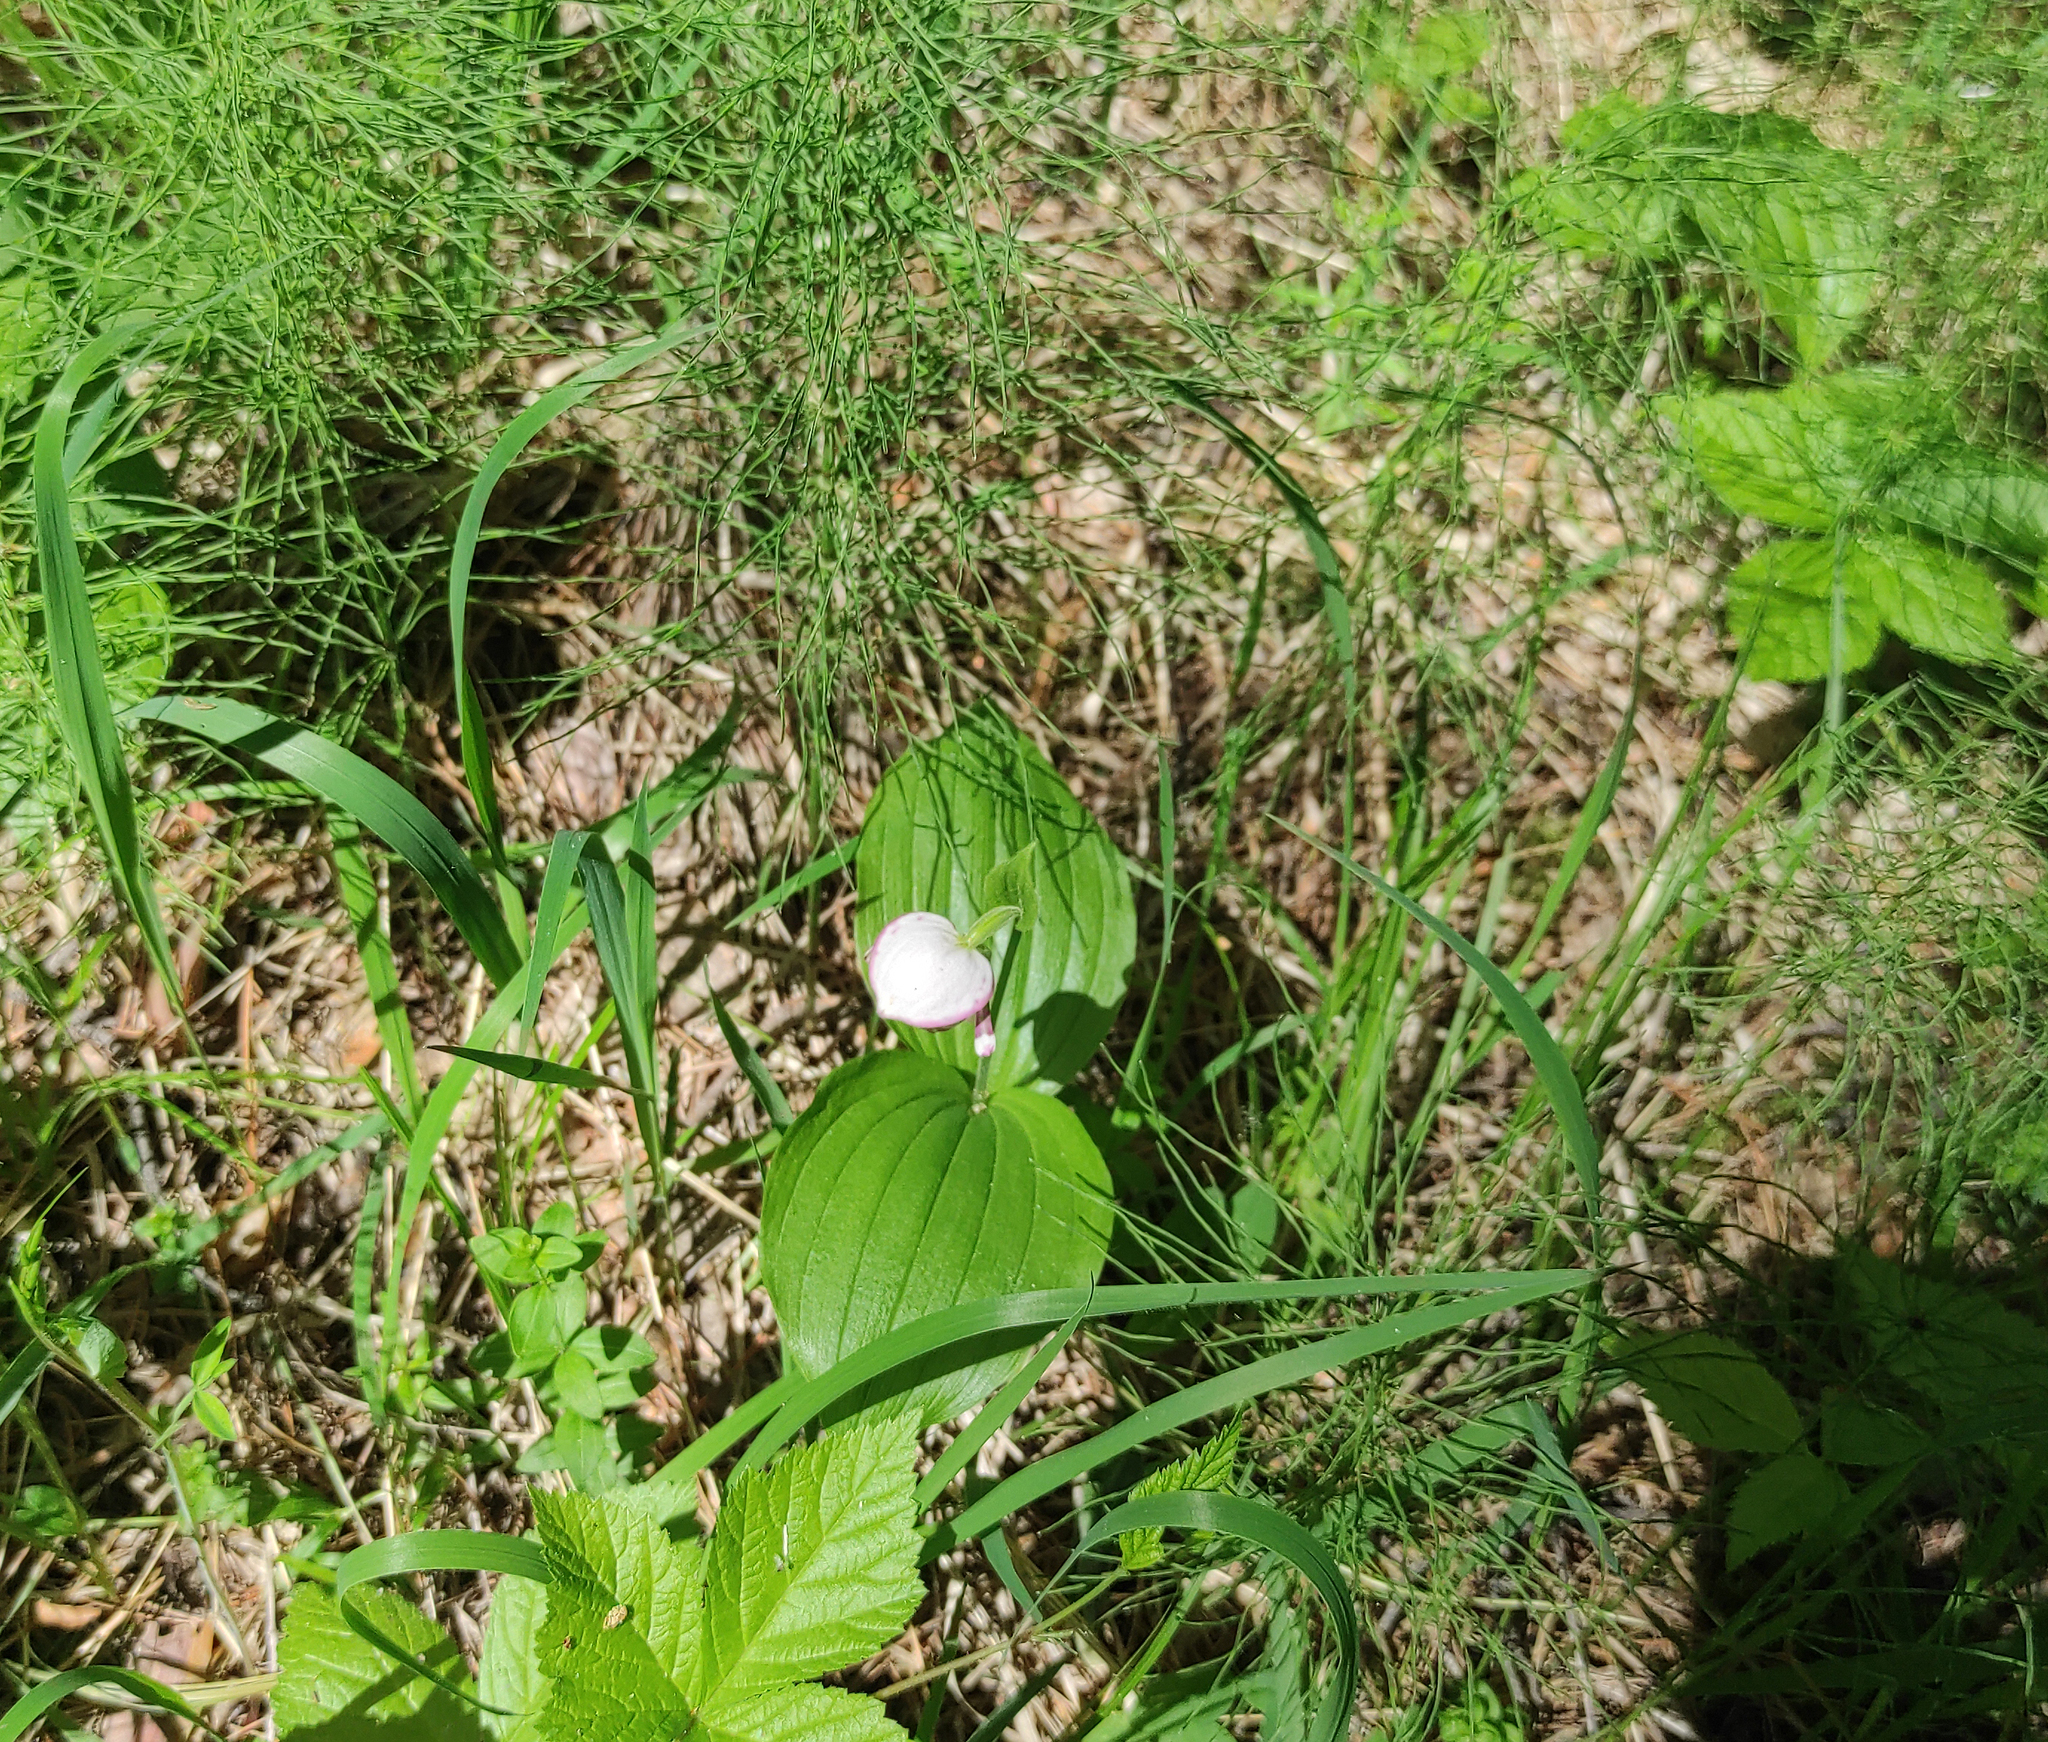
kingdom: Plantae
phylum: Tracheophyta
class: Liliopsida
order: Asparagales
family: Orchidaceae
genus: Cypripedium
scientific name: Cypripedium guttatum
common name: Pink lady slipper
